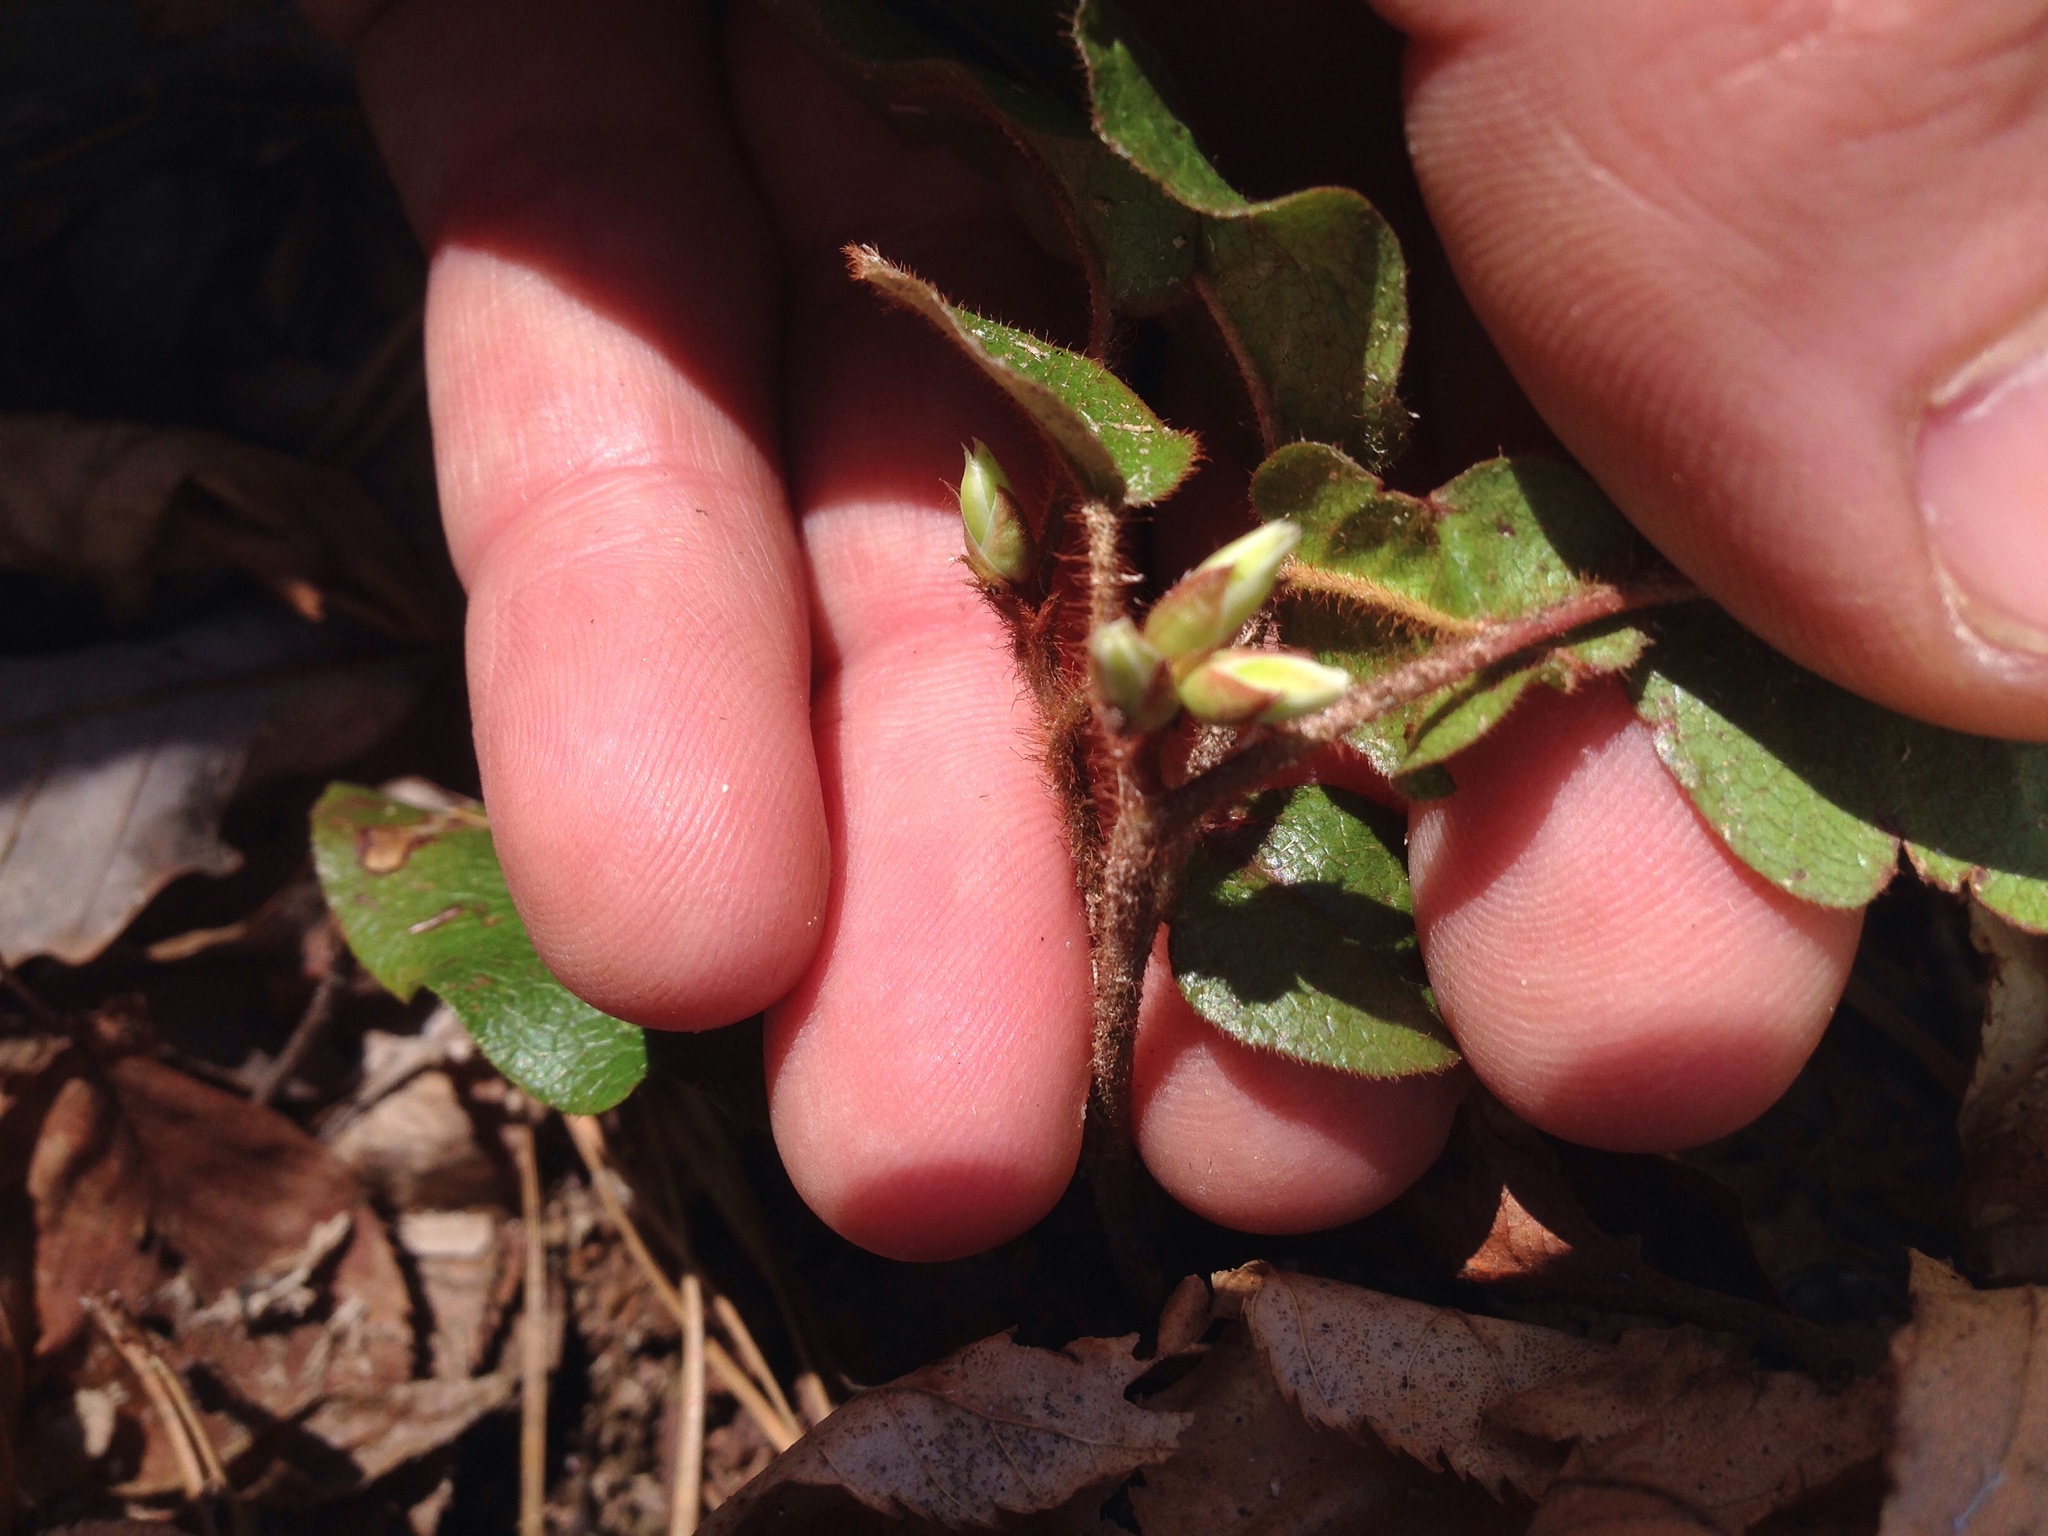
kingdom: Plantae
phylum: Tracheophyta
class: Magnoliopsida
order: Ericales
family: Ericaceae
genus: Epigaea
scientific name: Epigaea repens
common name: Gravelroot
